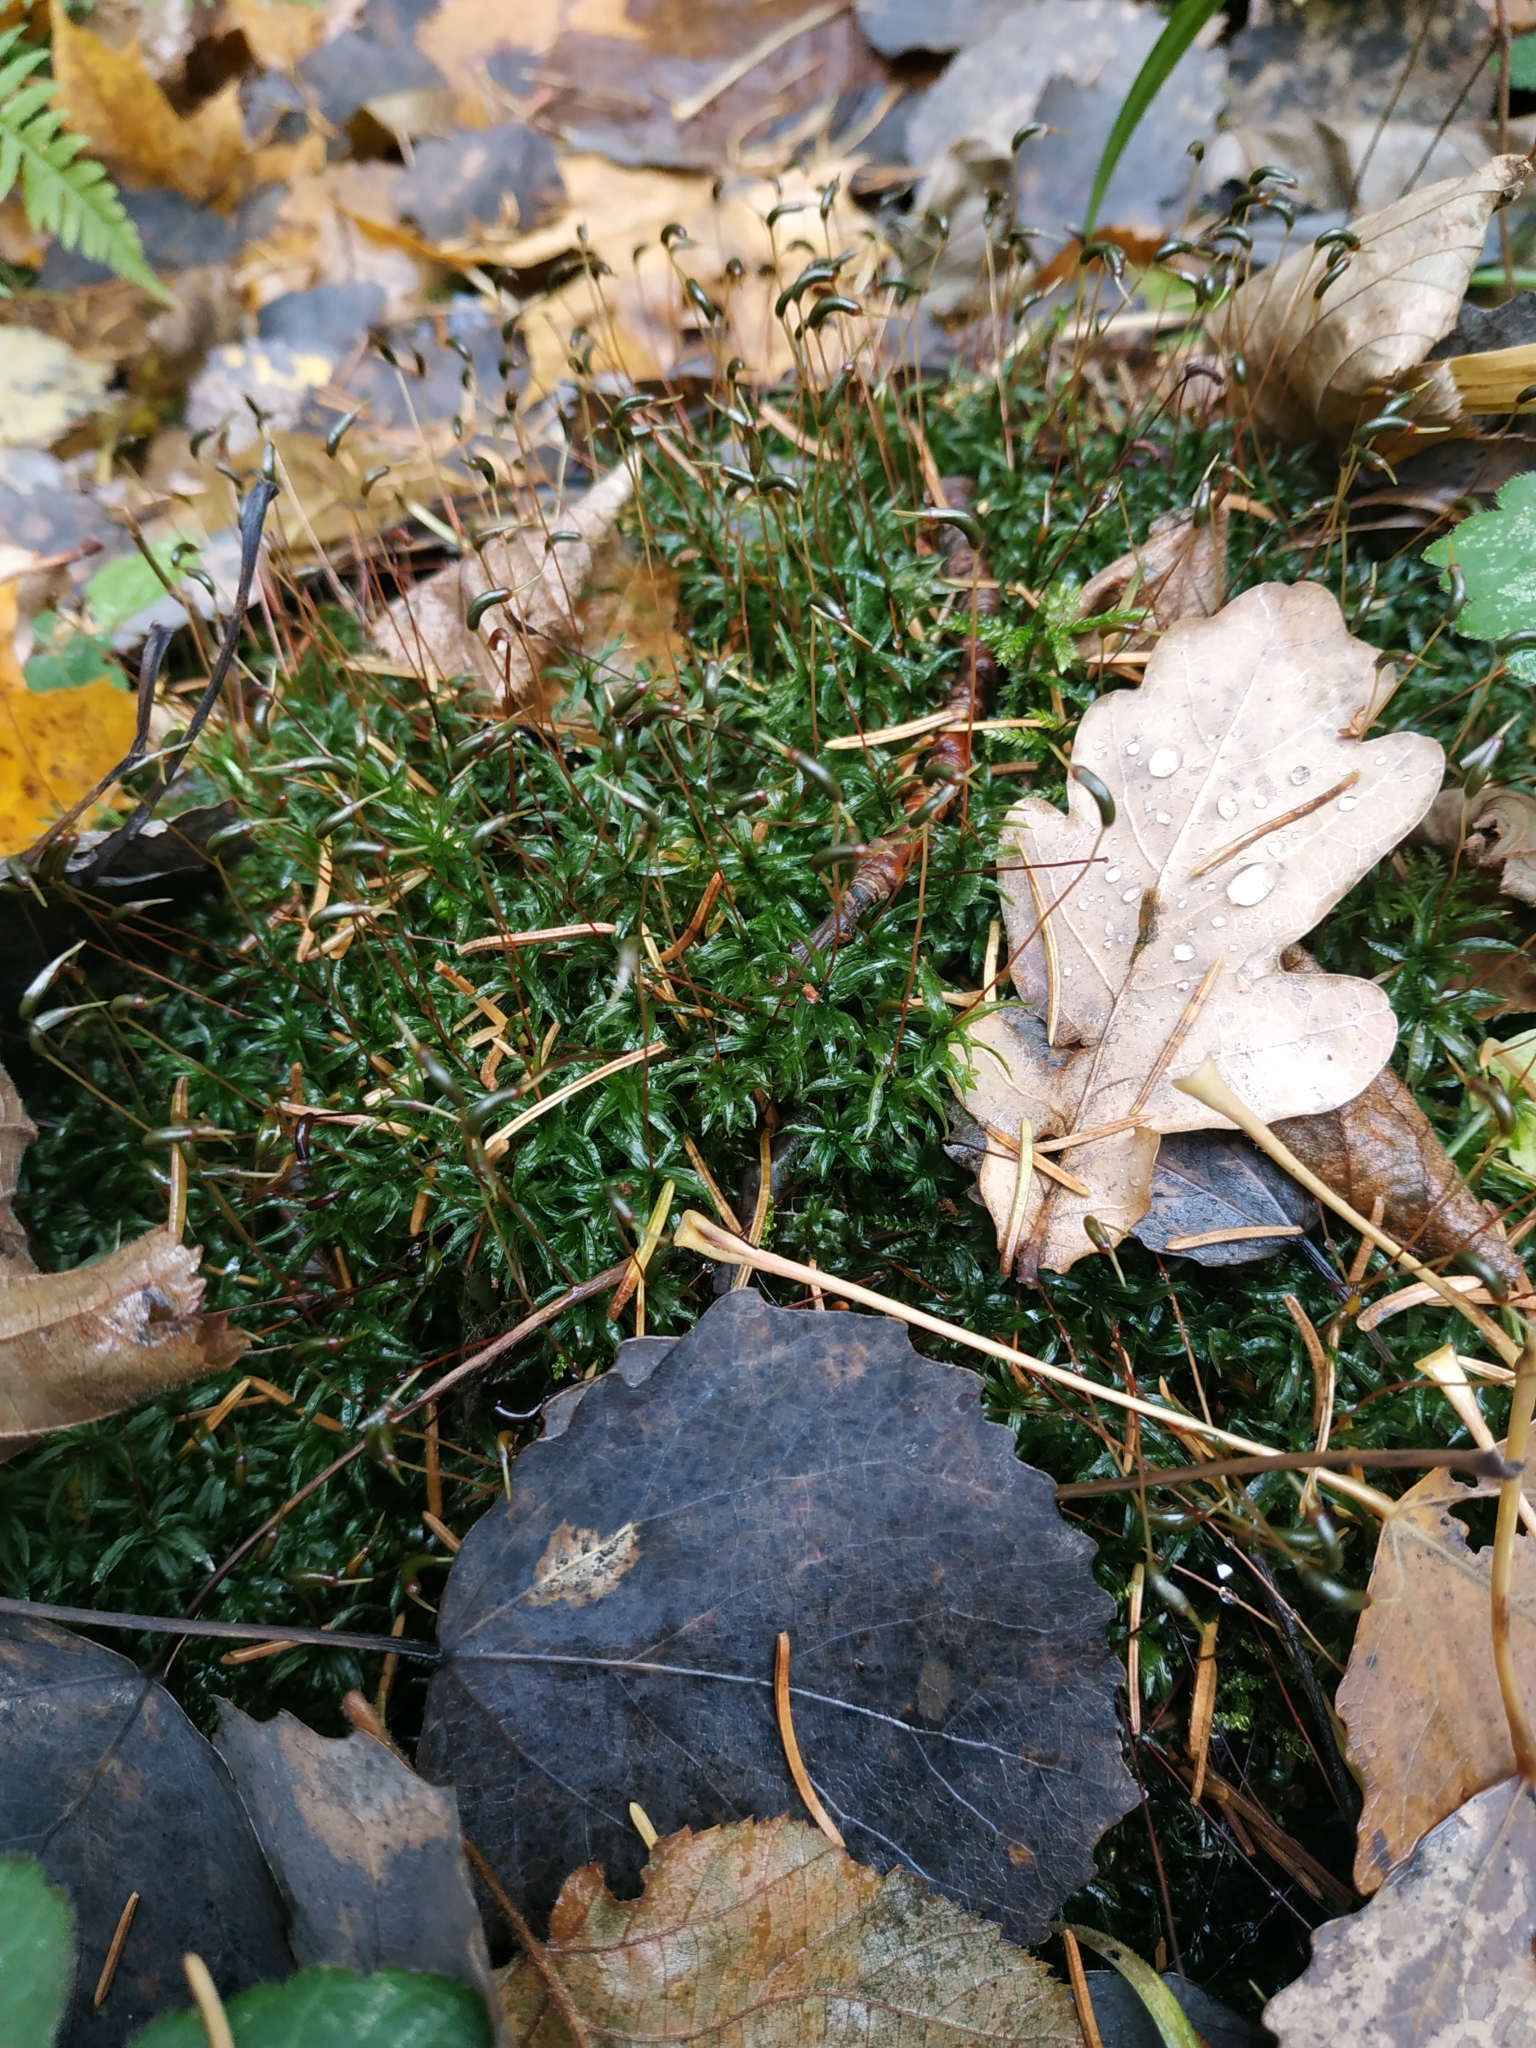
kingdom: Plantae
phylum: Bryophyta
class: Polytrichopsida
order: Polytrichales
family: Polytrichaceae
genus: Atrichum
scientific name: Atrichum undulatum
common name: Common smoothcap
